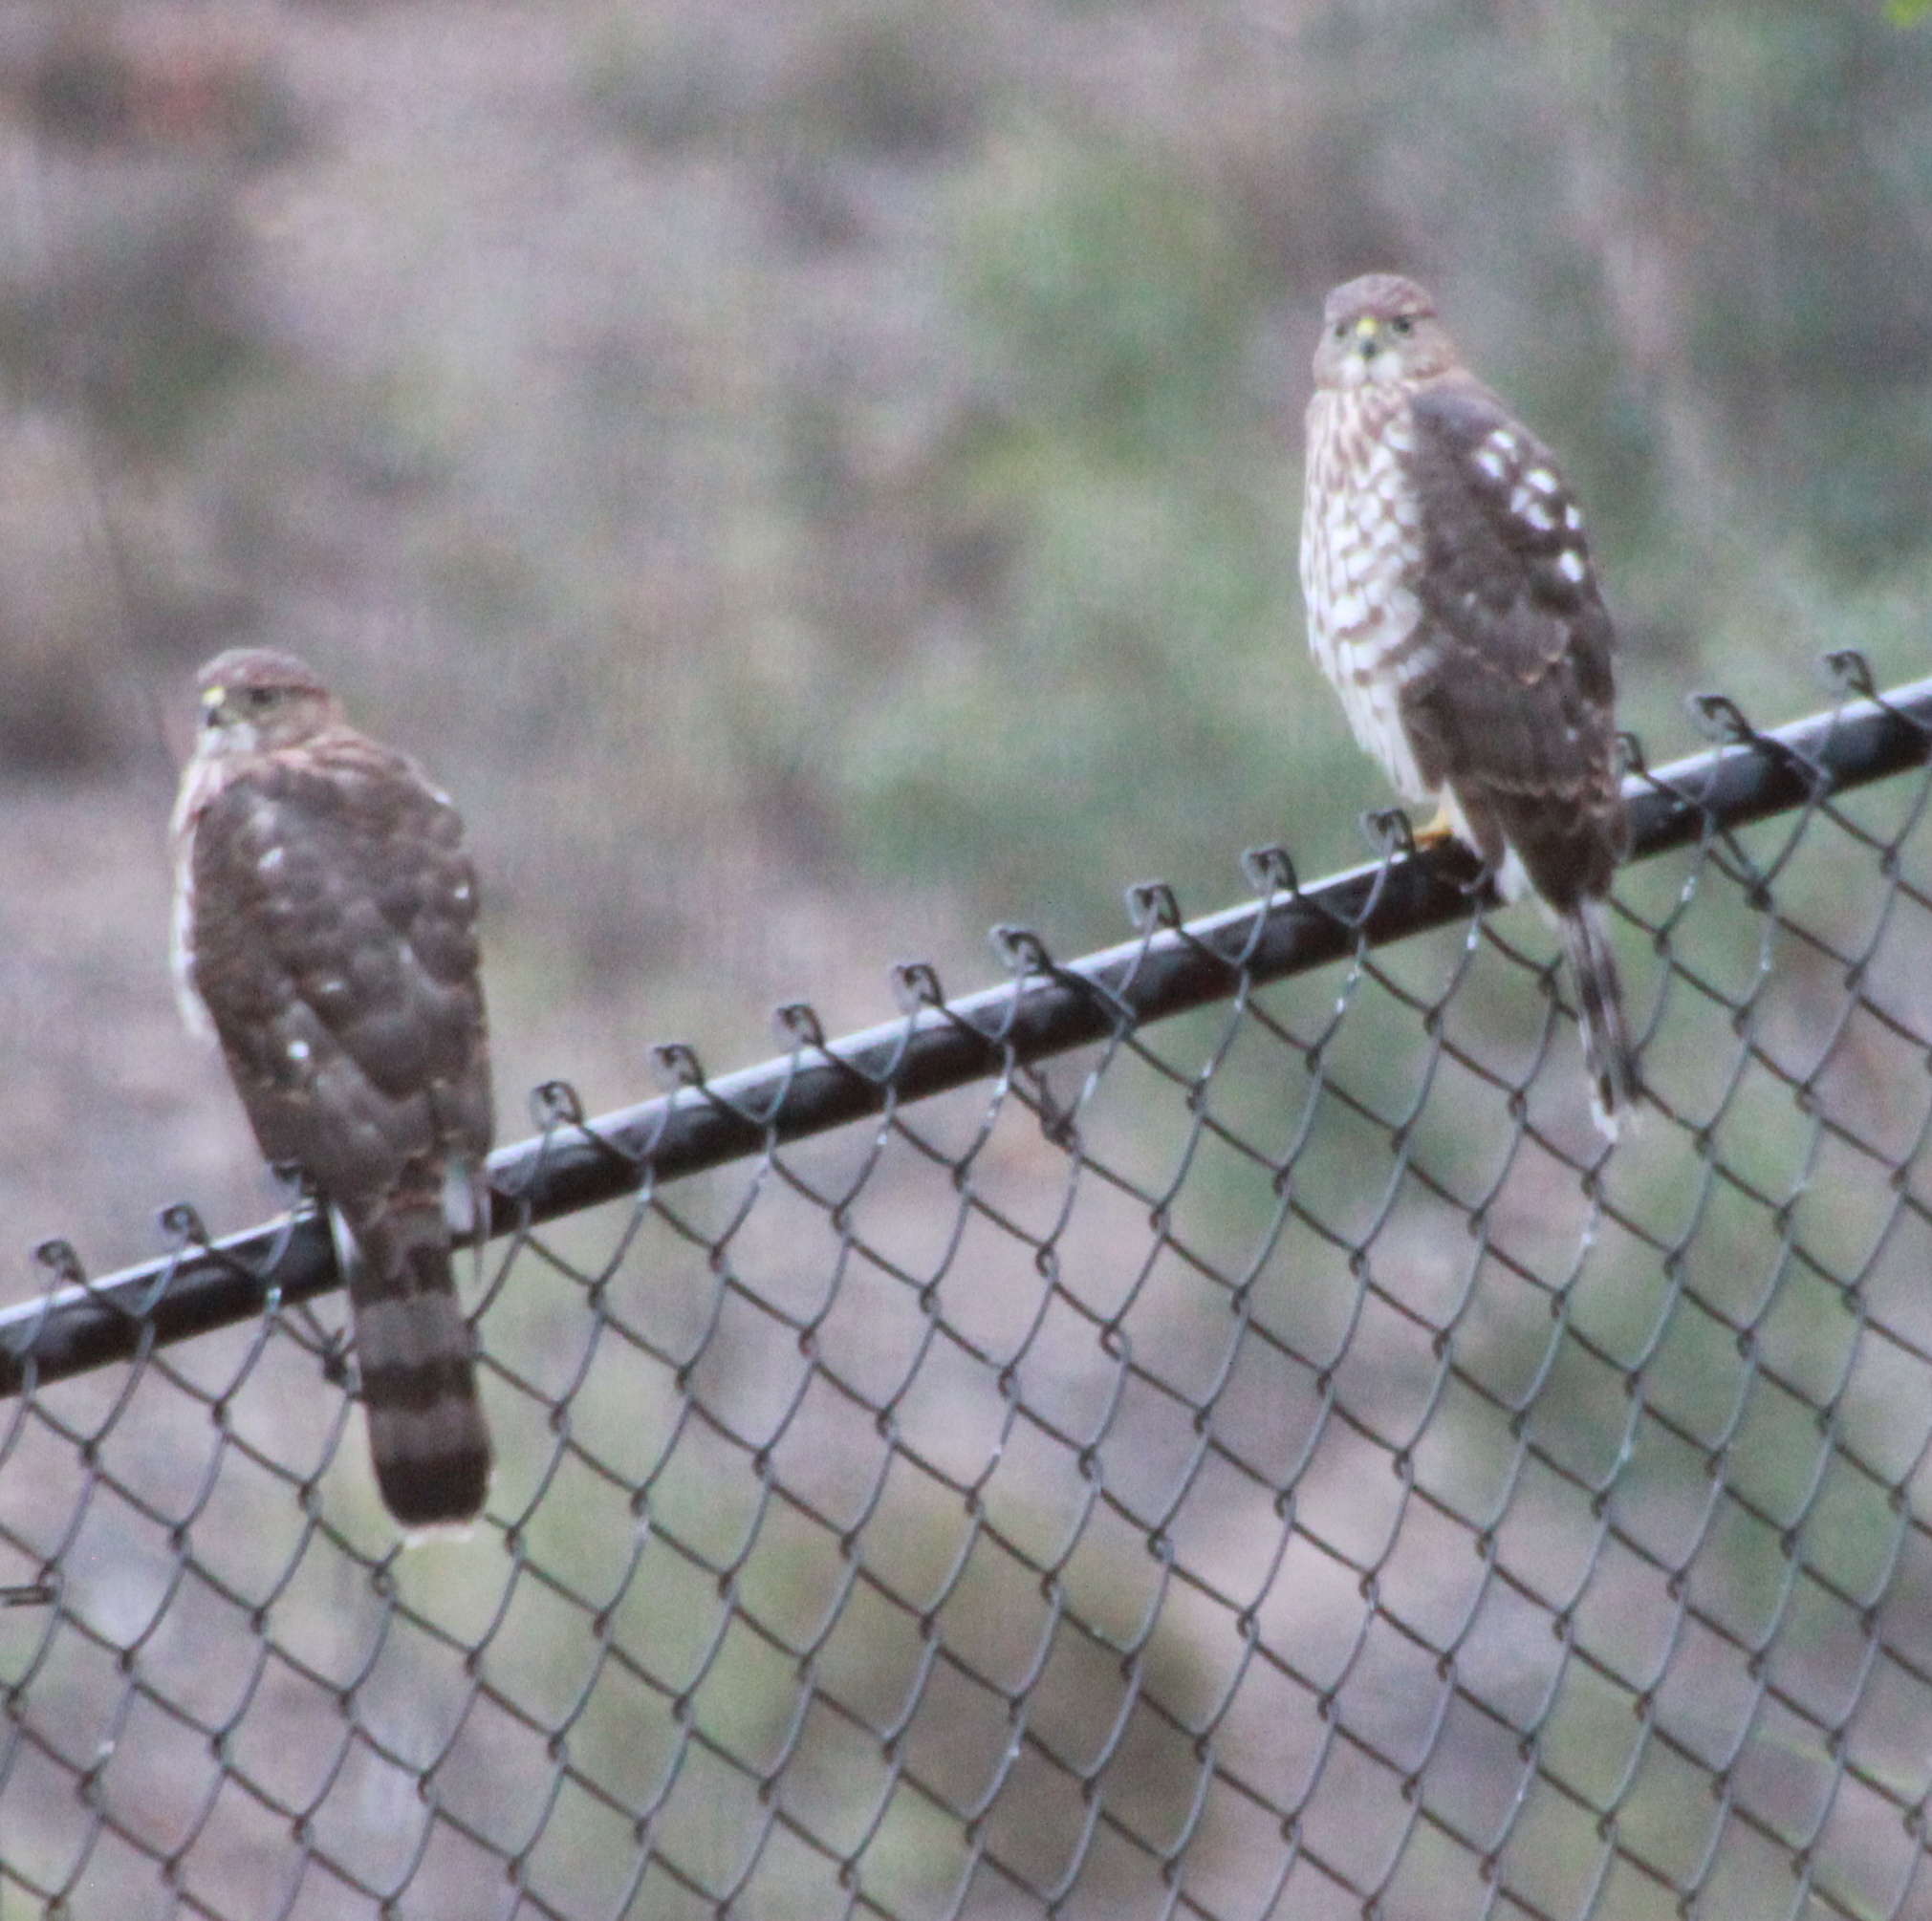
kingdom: Animalia
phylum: Chordata
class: Aves
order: Accipitriformes
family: Accipitridae
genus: Accipiter
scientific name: Accipiter cooperii
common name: Cooper's hawk
